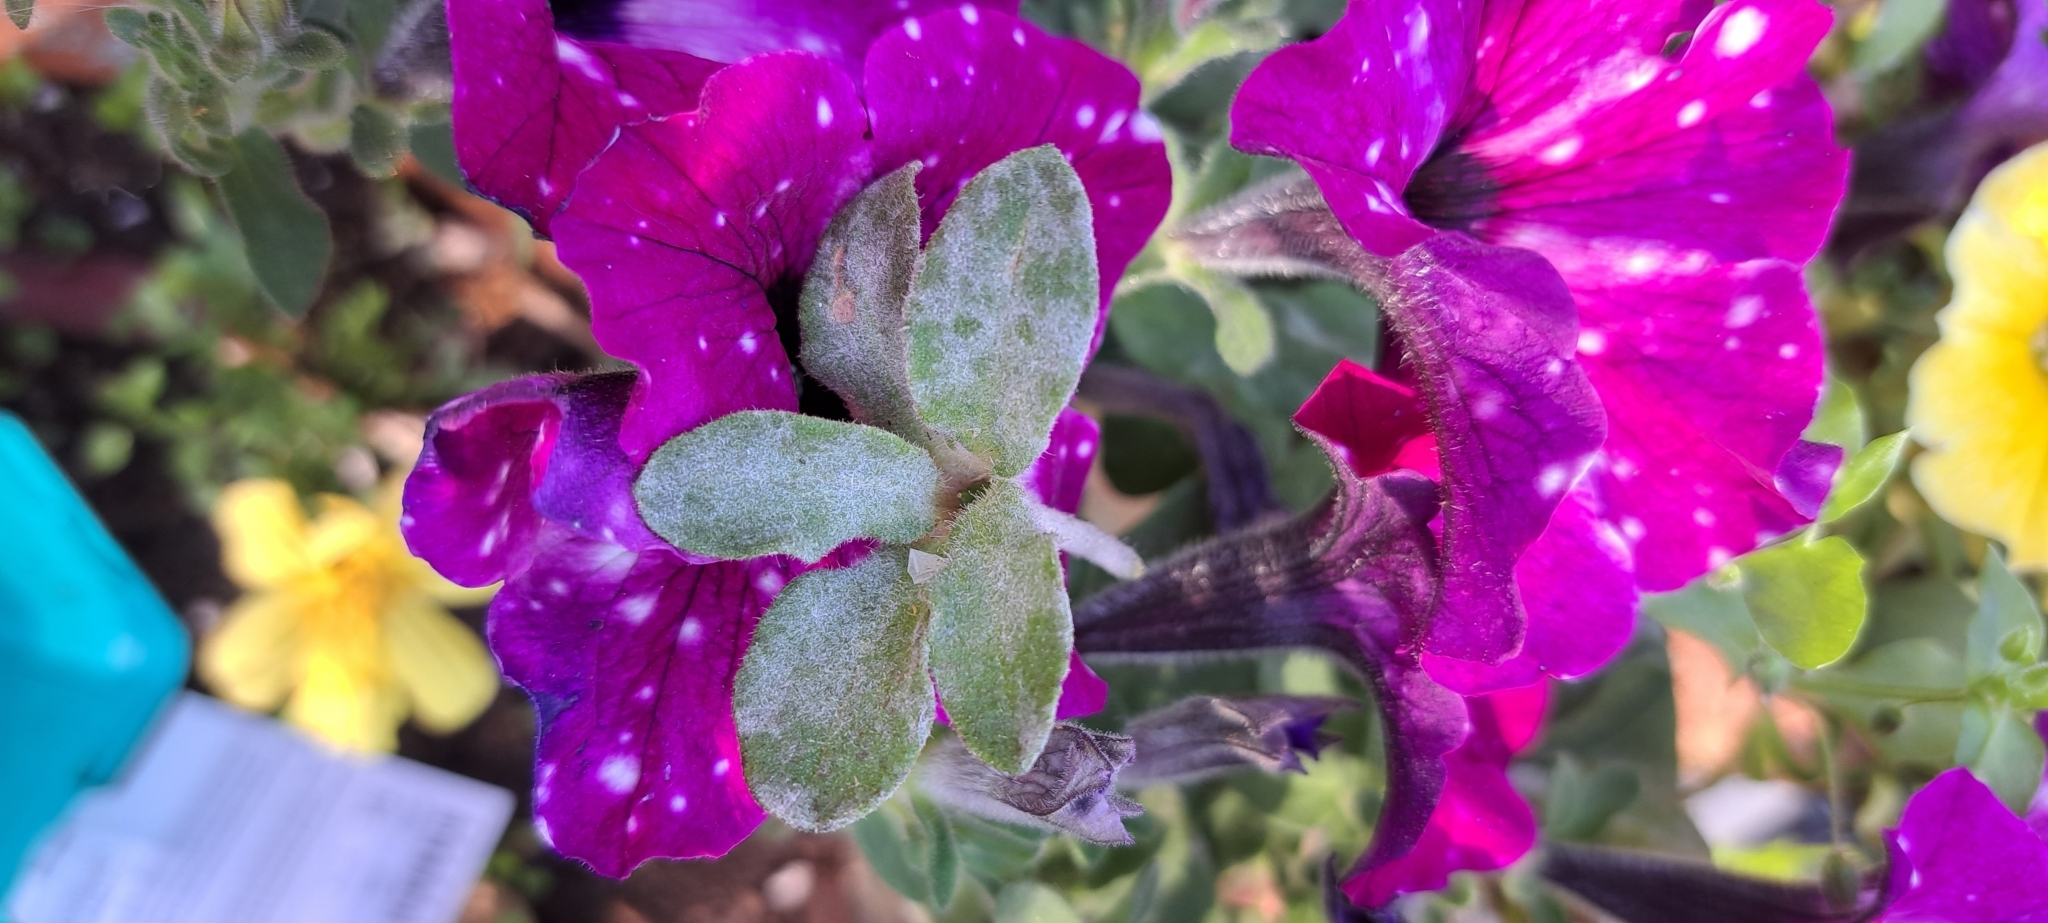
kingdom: Fungi
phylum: Ascomycota
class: Leotiomycetes
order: Helotiales
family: Erysiphaceae
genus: Golovinomyces
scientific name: Golovinomyces longipes
